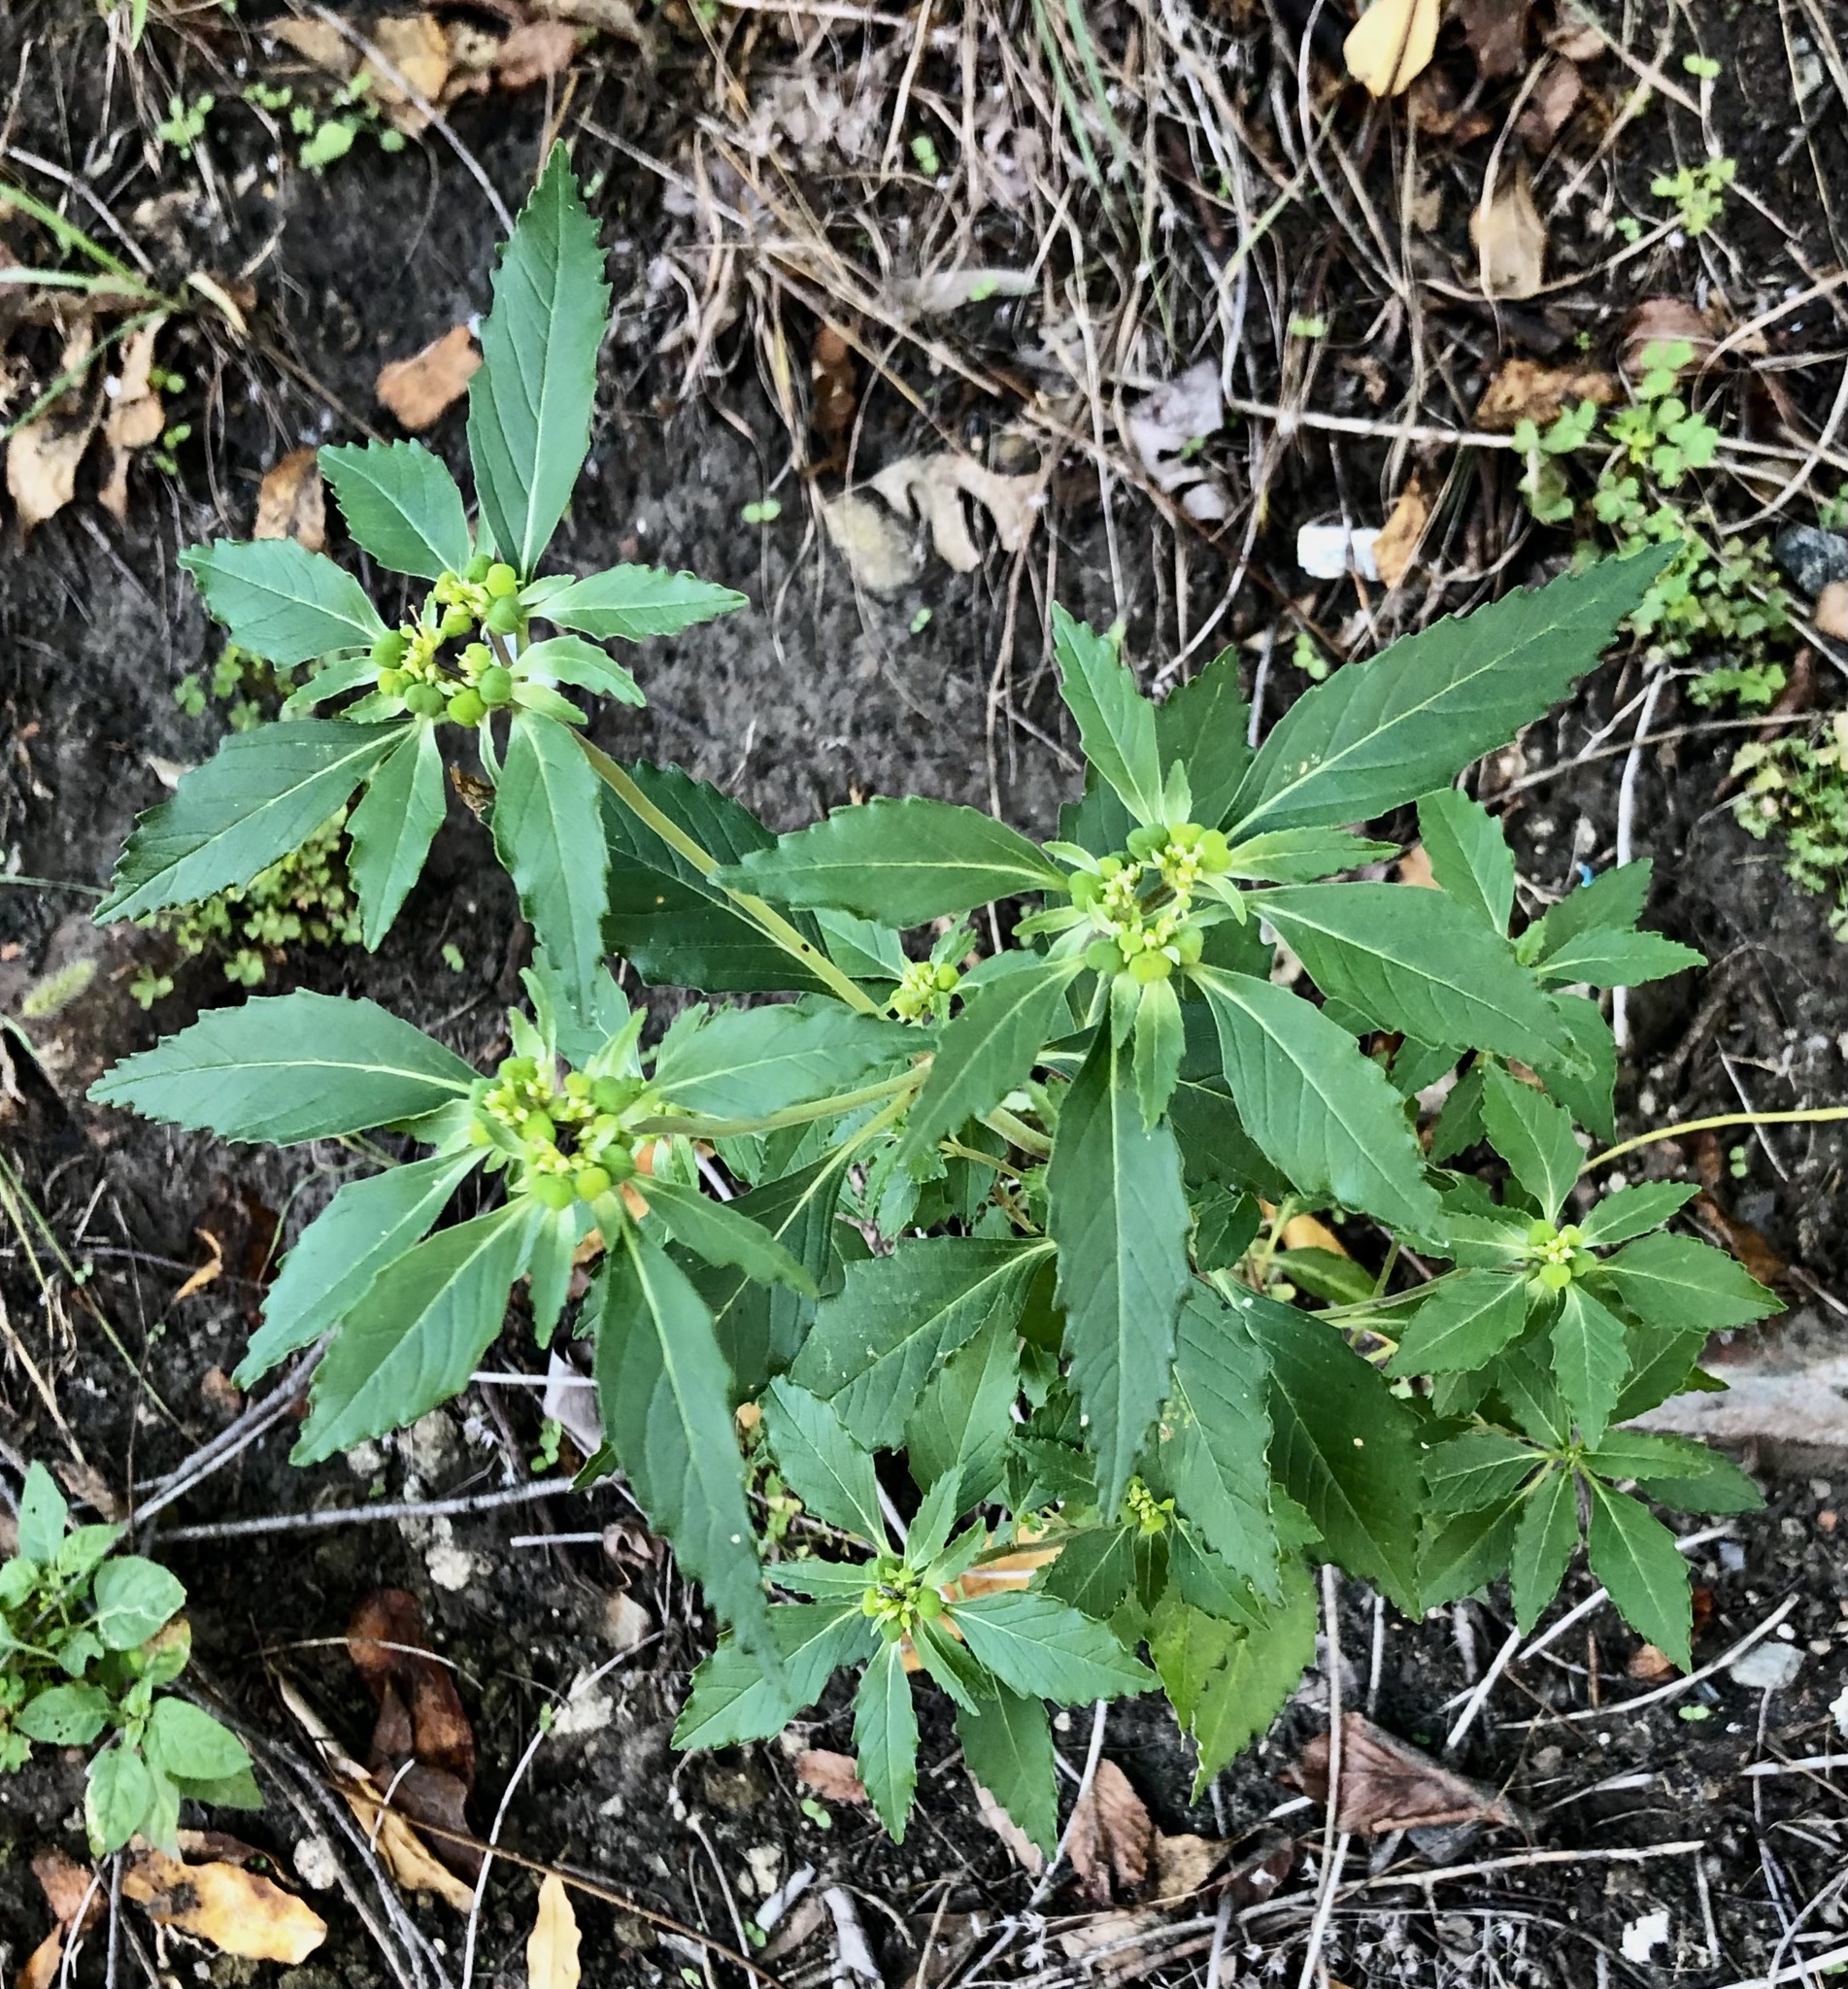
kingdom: Plantae
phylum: Tracheophyta
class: Magnoliopsida
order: Malpighiales
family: Euphorbiaceae
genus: Euphorbia
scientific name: Euphorbia davidii
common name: David's spurge
